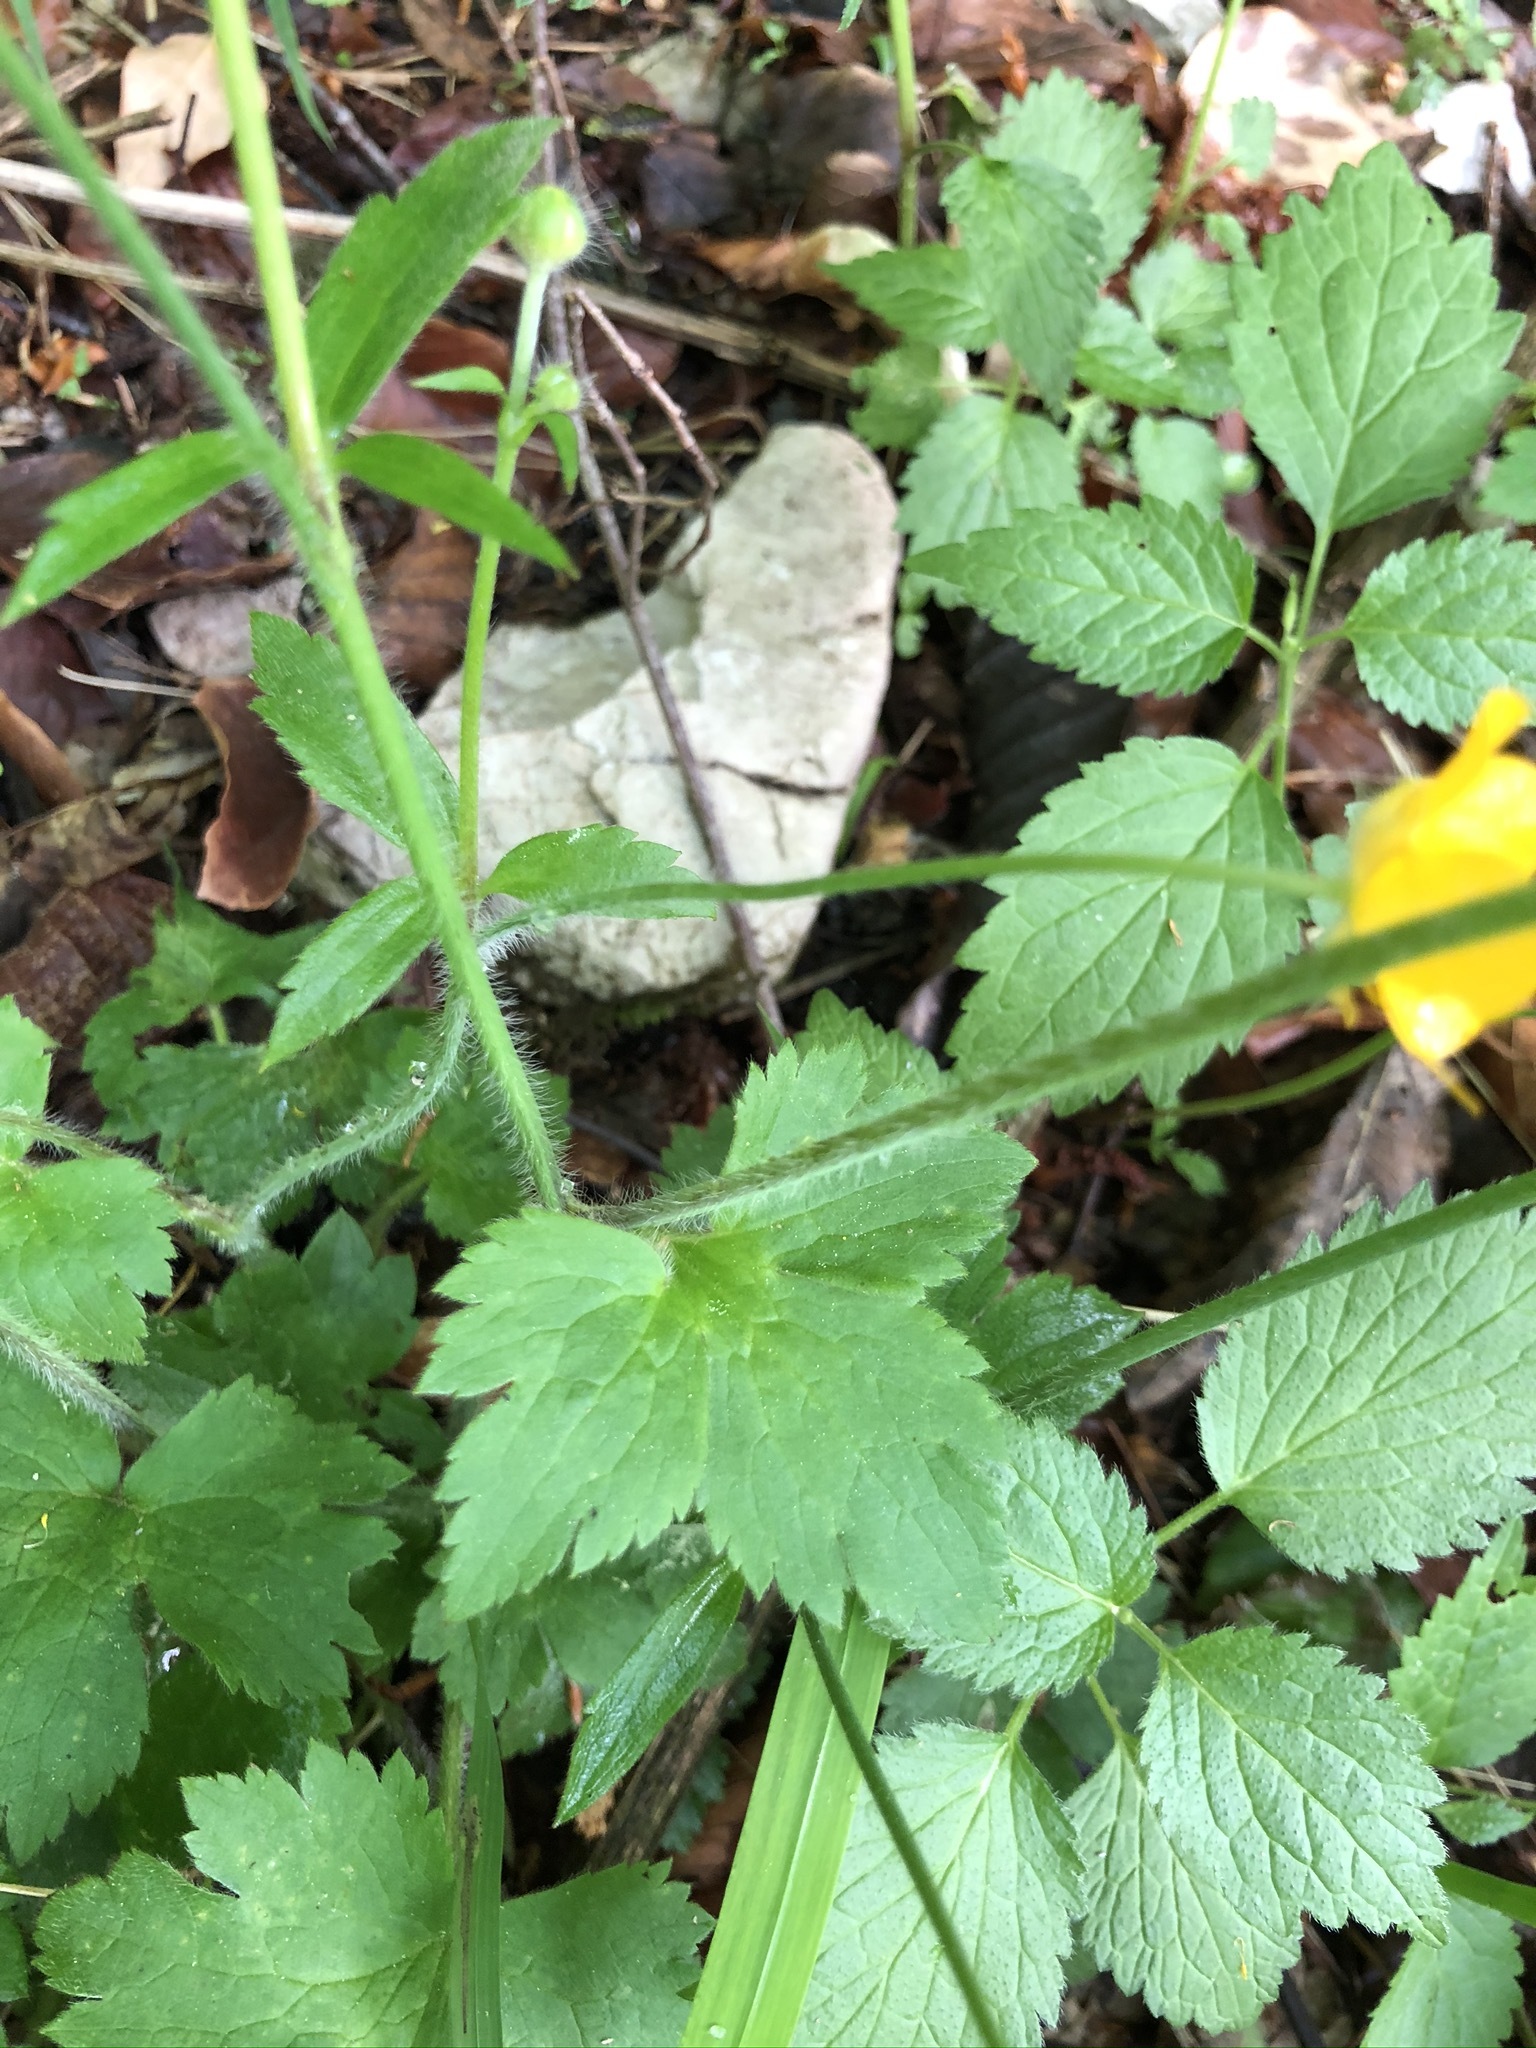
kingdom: Plantae
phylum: Tracheophyta
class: Magnoliopsida
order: Ranunculales
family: Ranunculaceae
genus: Ranunculus
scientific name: Ranunculus lanuginosus
